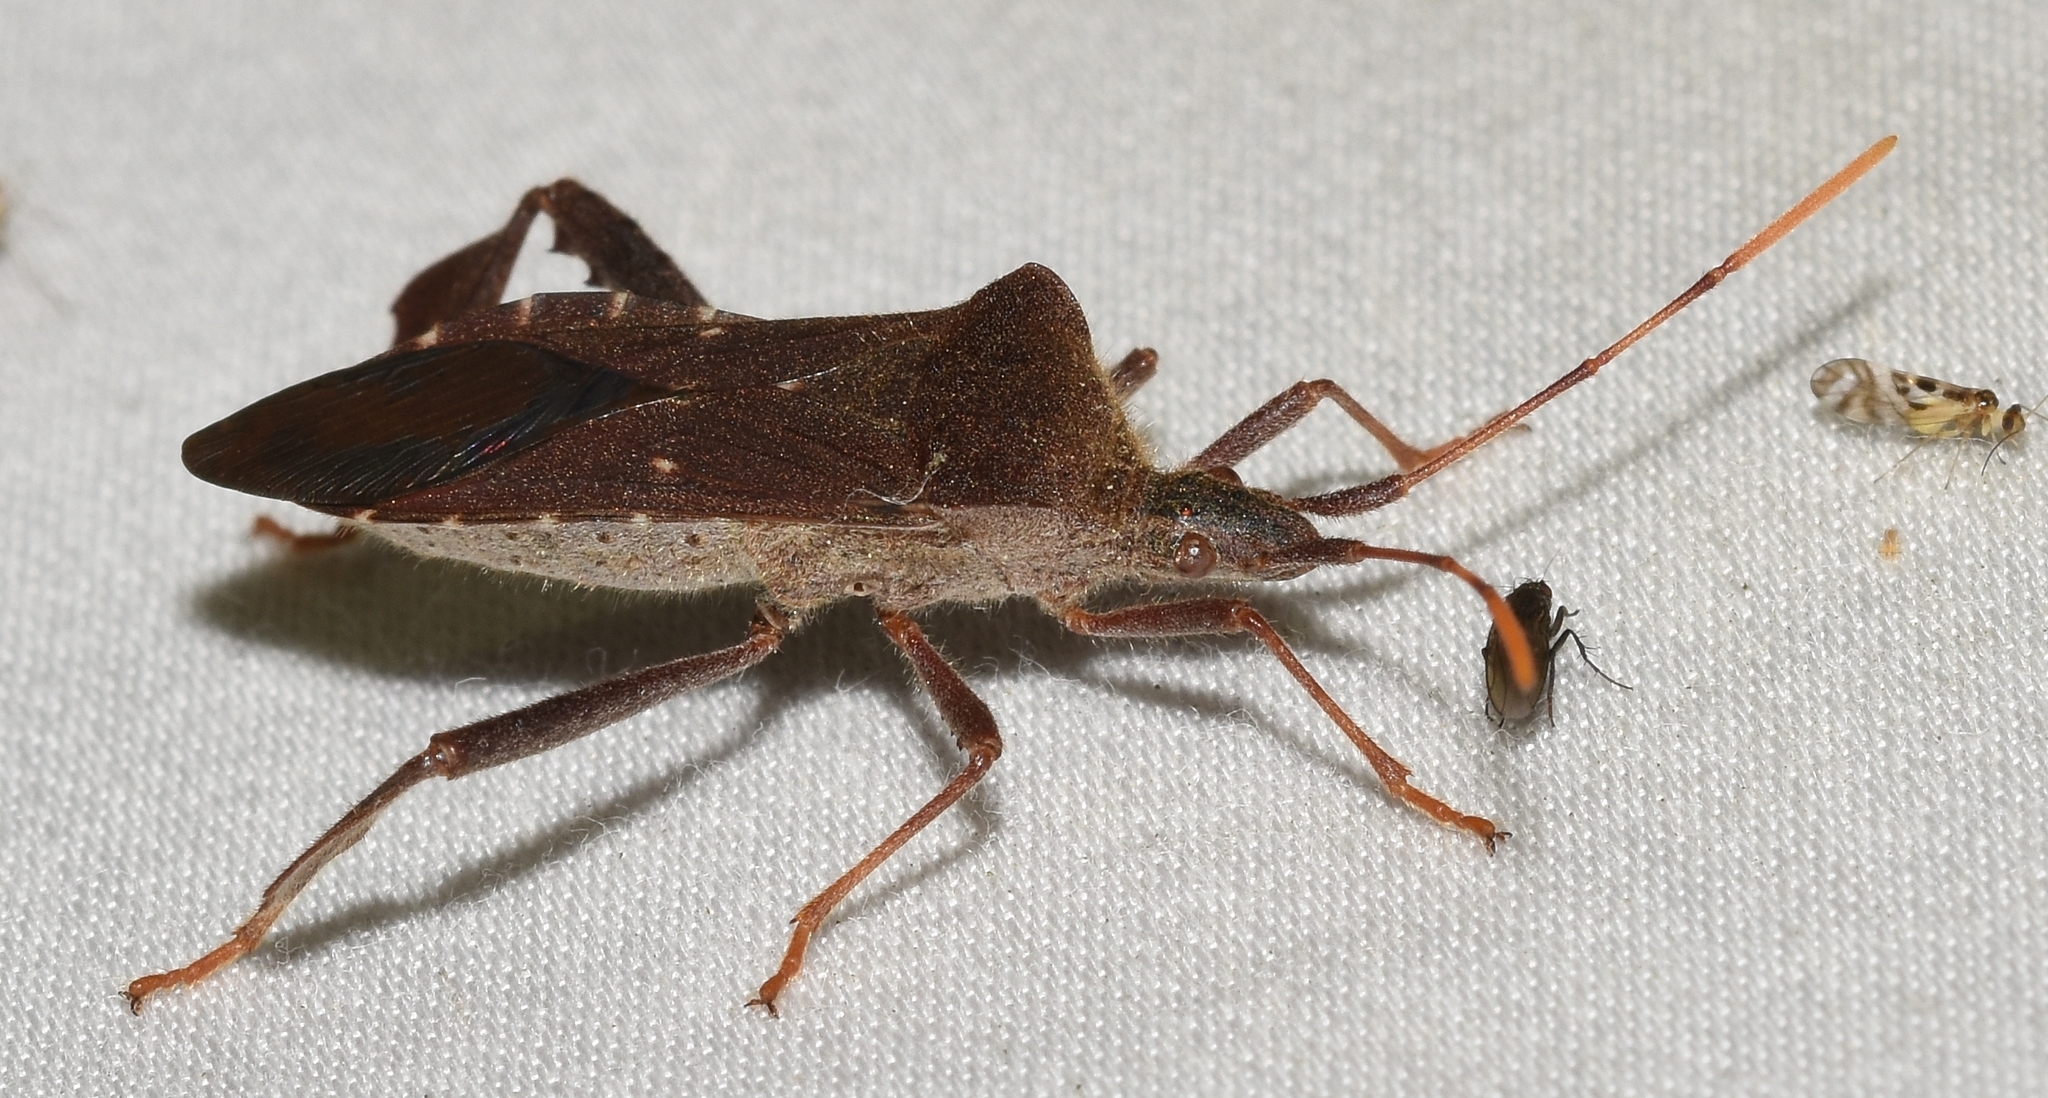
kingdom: Animalia
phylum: Arthropoda
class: Insecta
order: Hemiptera
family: Coreidae
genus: Leptoglossus
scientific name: Leptoglossus oppositus
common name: Northern leaf-footed bug
